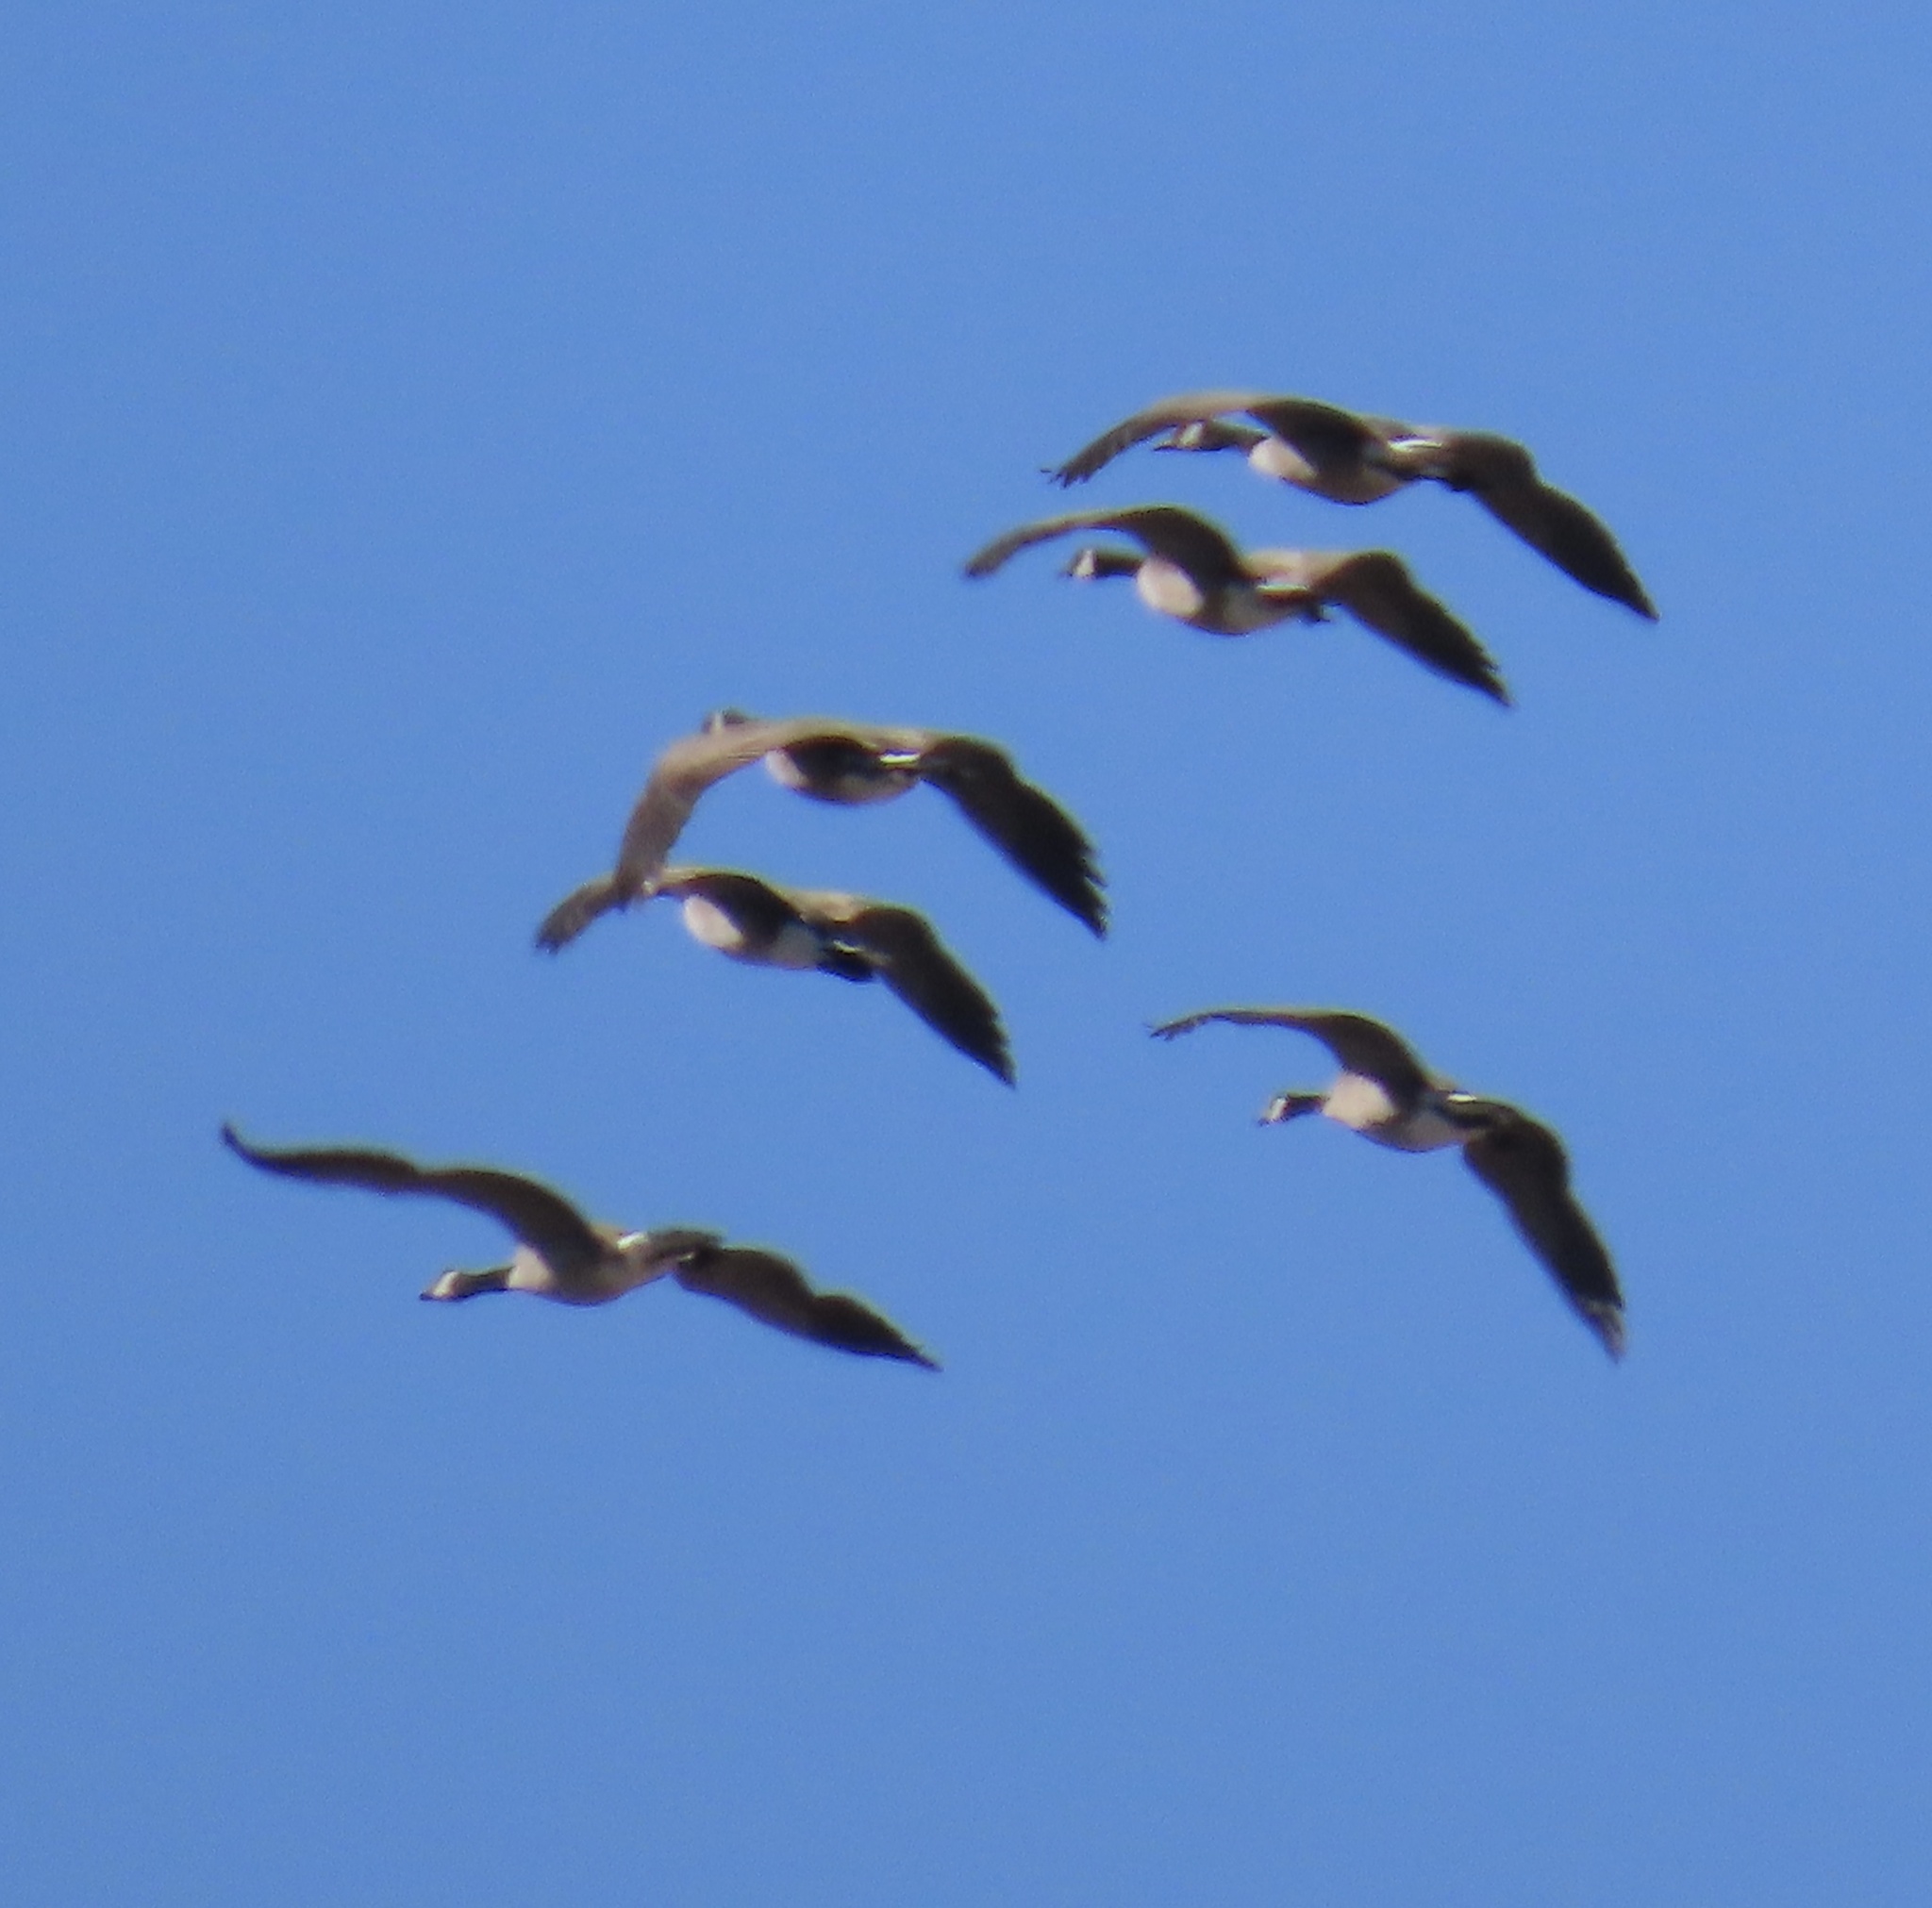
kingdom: Animalia
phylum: Chordata
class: Aves
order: Anseriformes
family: Anatidae
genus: Branta
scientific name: Branta canadensis
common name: Canada goose
